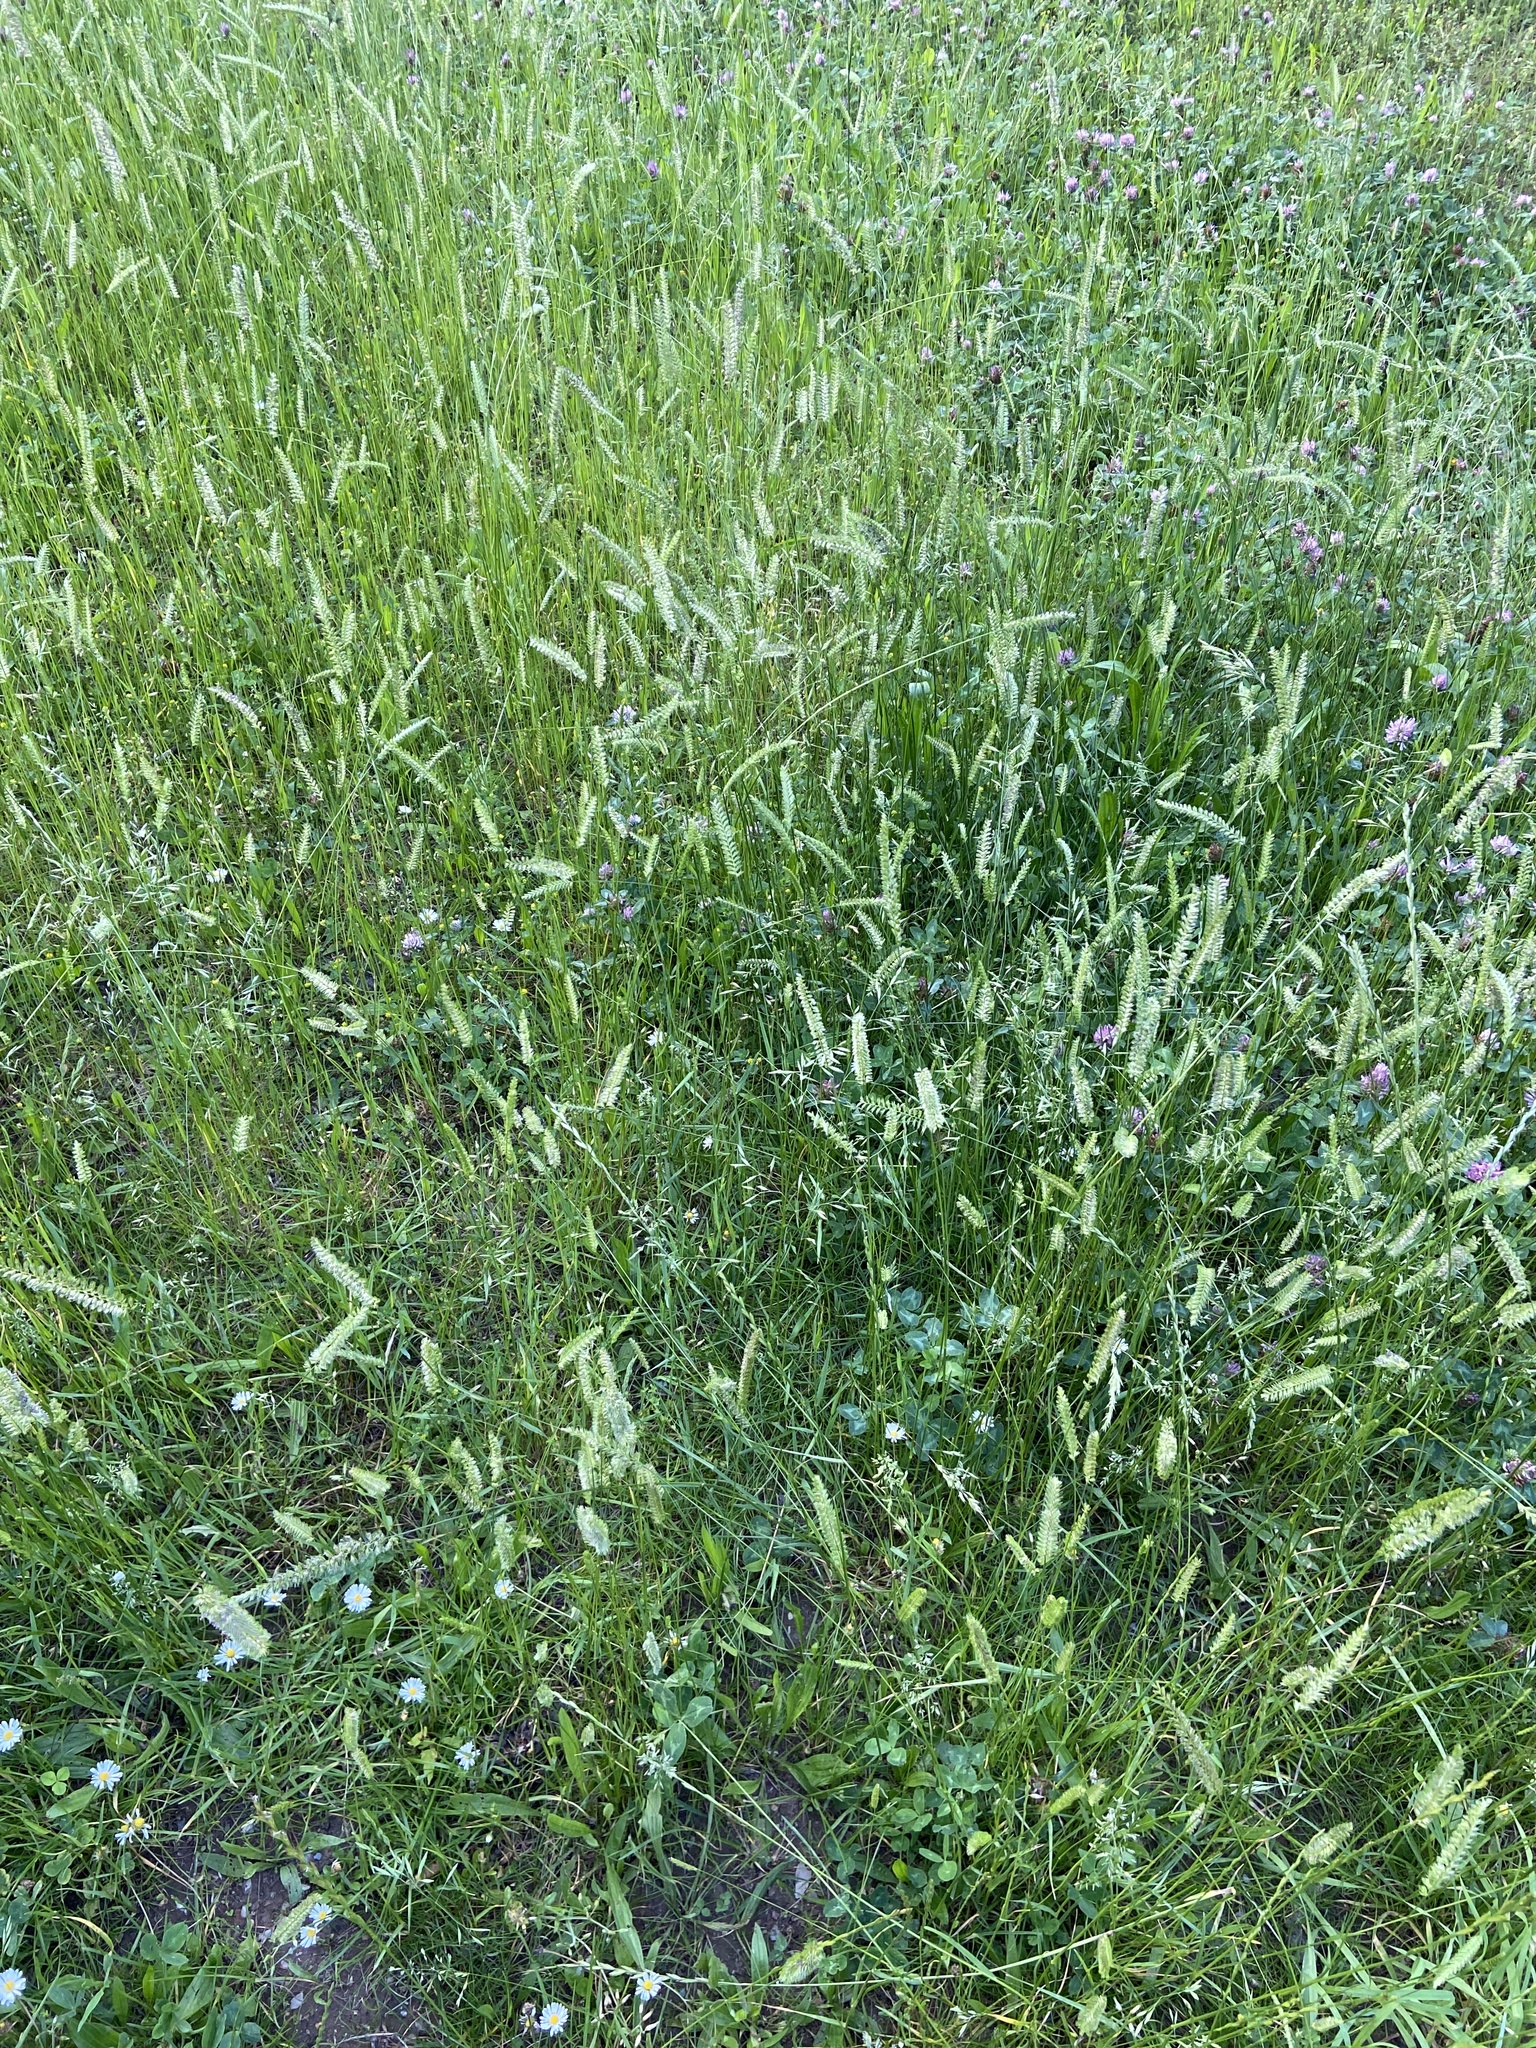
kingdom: Plantae
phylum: Tracheophyta
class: Liliopsida
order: Poales
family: Poaceae
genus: Cynosurus
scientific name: Cynosurus cristatus
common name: Crested dog's-tail
